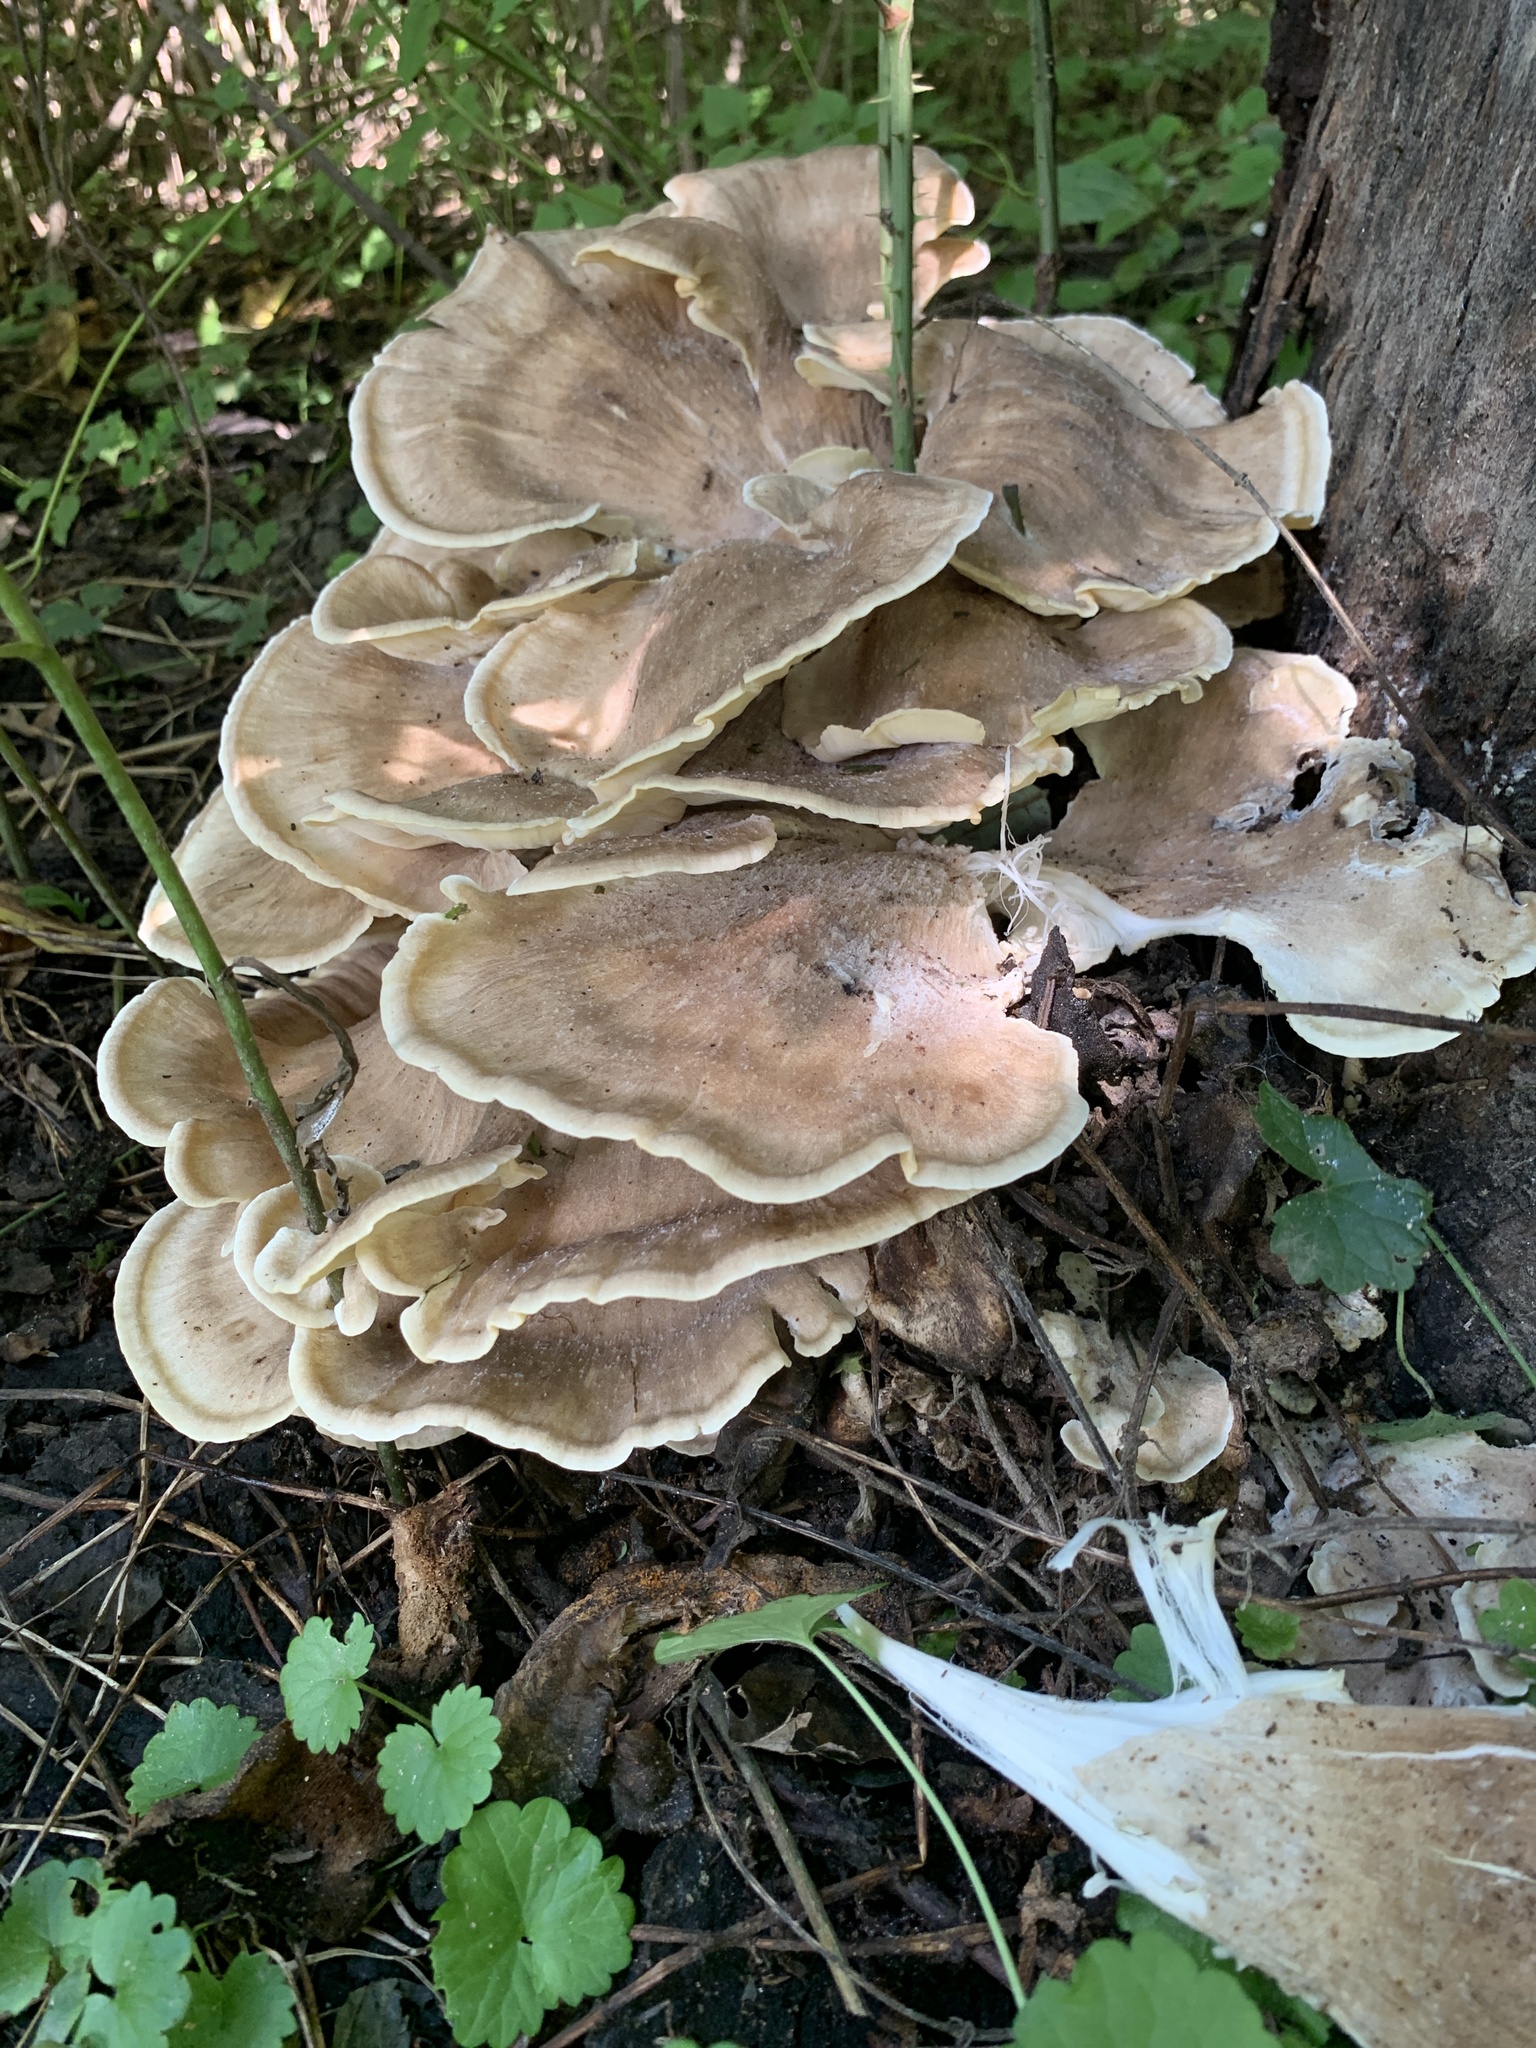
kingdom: Fungi
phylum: Basidiomycota
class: Agaricomycetes
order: Polyporales
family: Meripilaceae
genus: Meripilus
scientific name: Meripilus sumstinei
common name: Black-staining polypore
